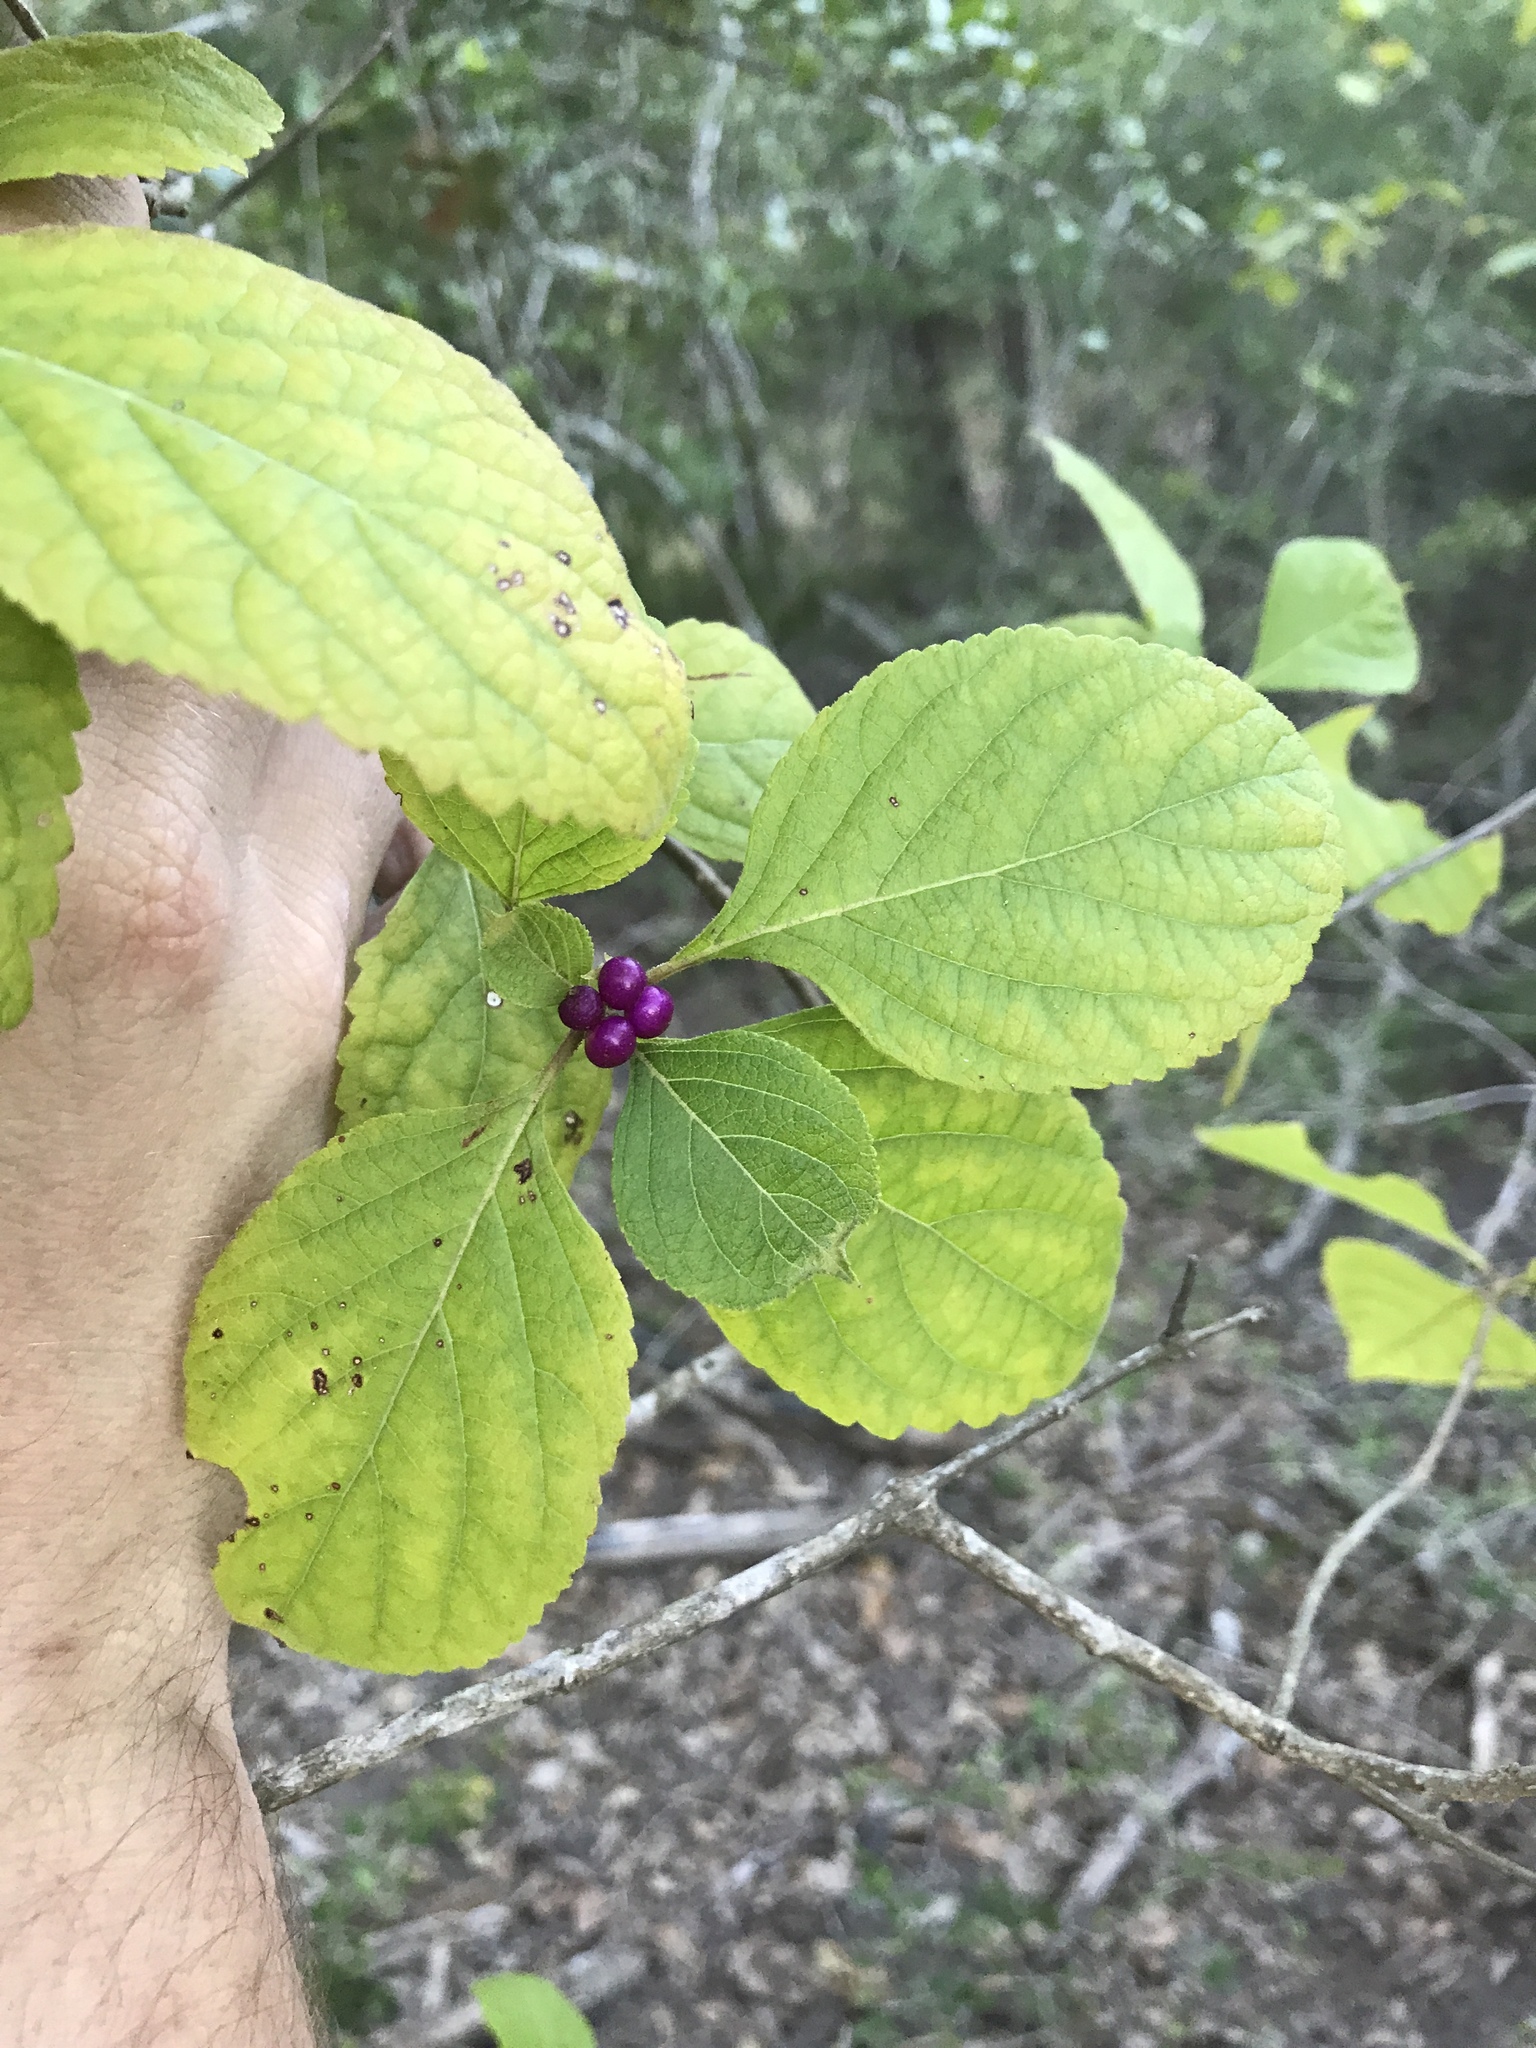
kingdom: Plantae
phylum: Tracheophyta
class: Magnoliopsida
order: Lamiales
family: Lamiaceae
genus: Callicarpa
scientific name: Callicarpa americana
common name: American beautyberry
